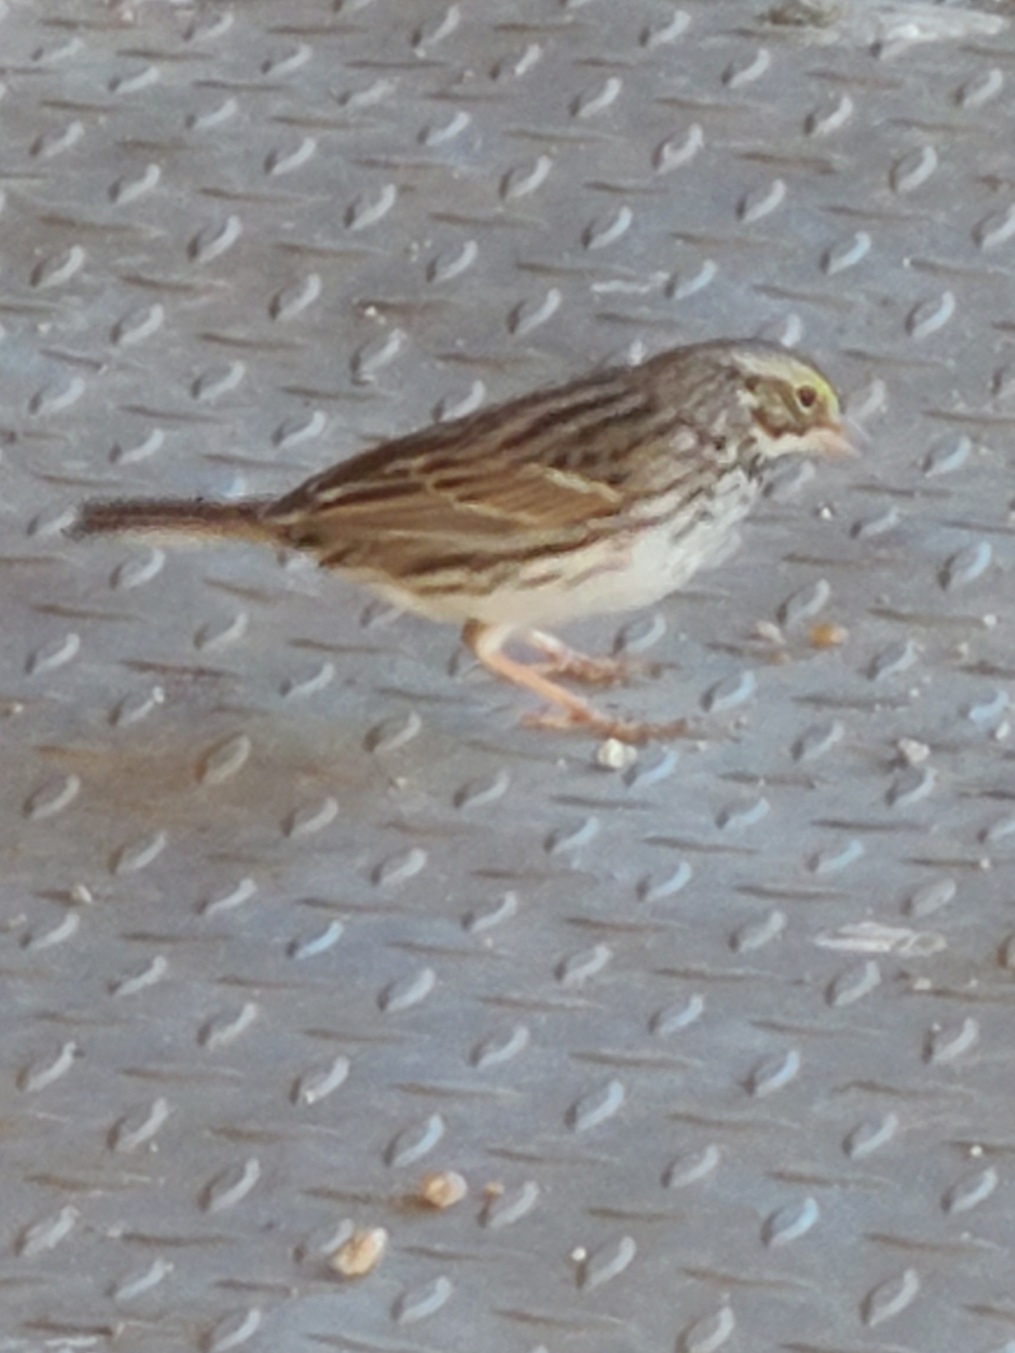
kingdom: Animalia
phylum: Chordata
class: Aves
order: Passeriformes
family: Passerellidae
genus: Passerculus
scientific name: Passerculus sandwichensis
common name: Savannah sparrow
